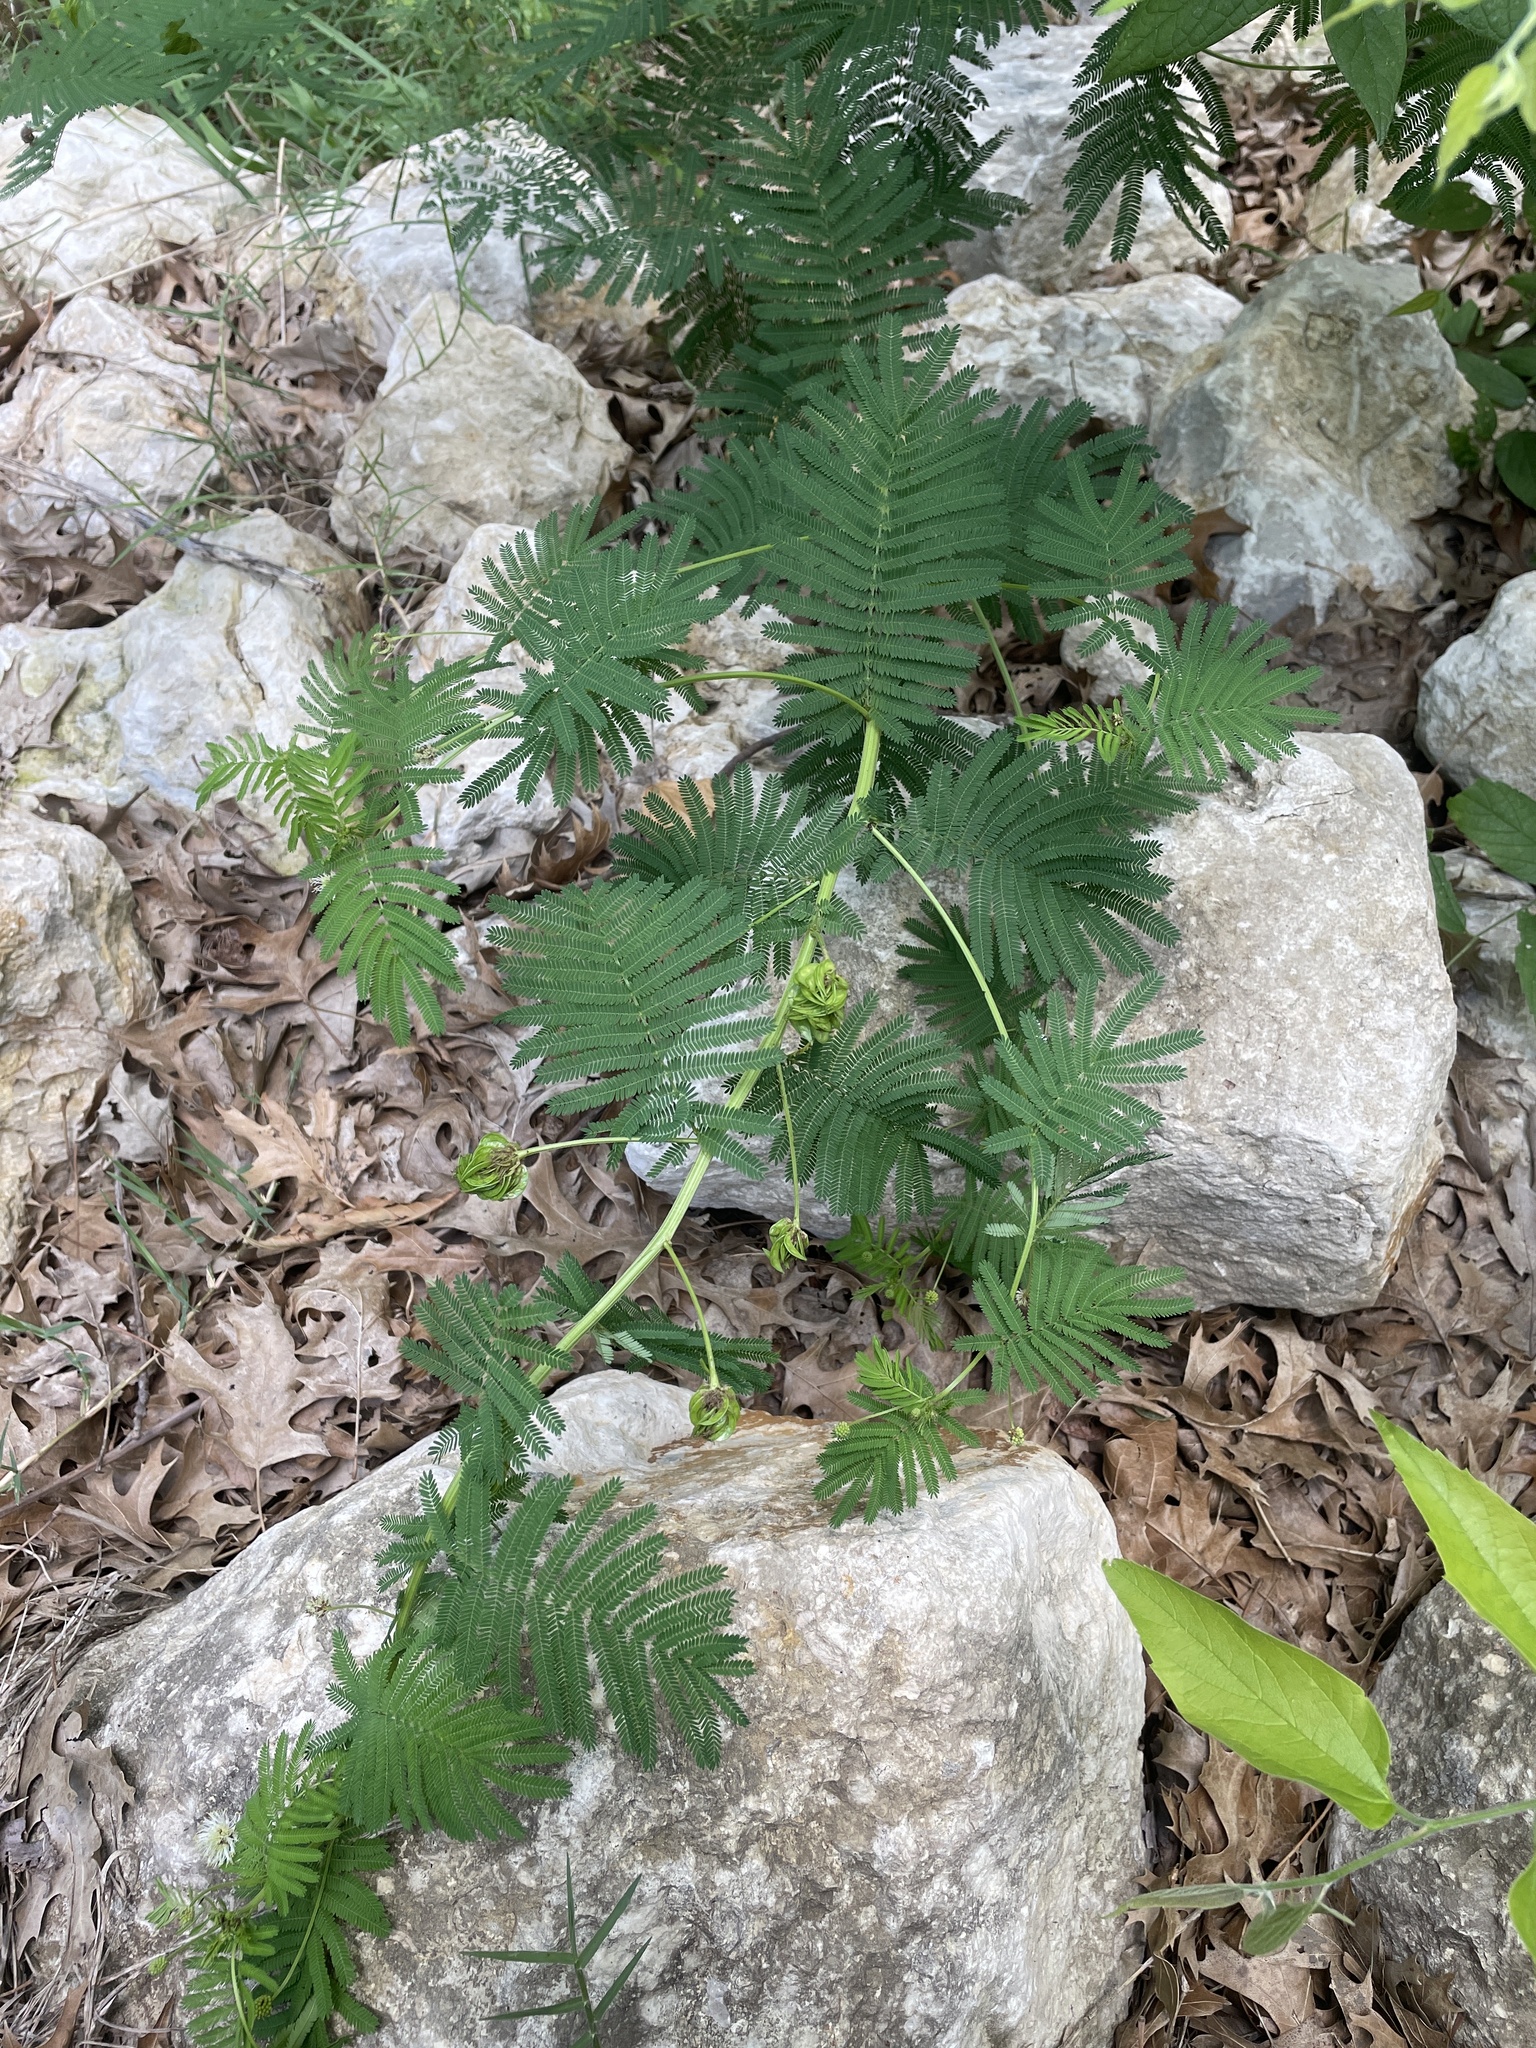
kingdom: Plantae
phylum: Tracheophyta
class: Magnoliopsida
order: Fabales
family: Fabaceae
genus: Desmanthus
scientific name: Desmanthus illinoensis
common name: Illinois bundle-flower
